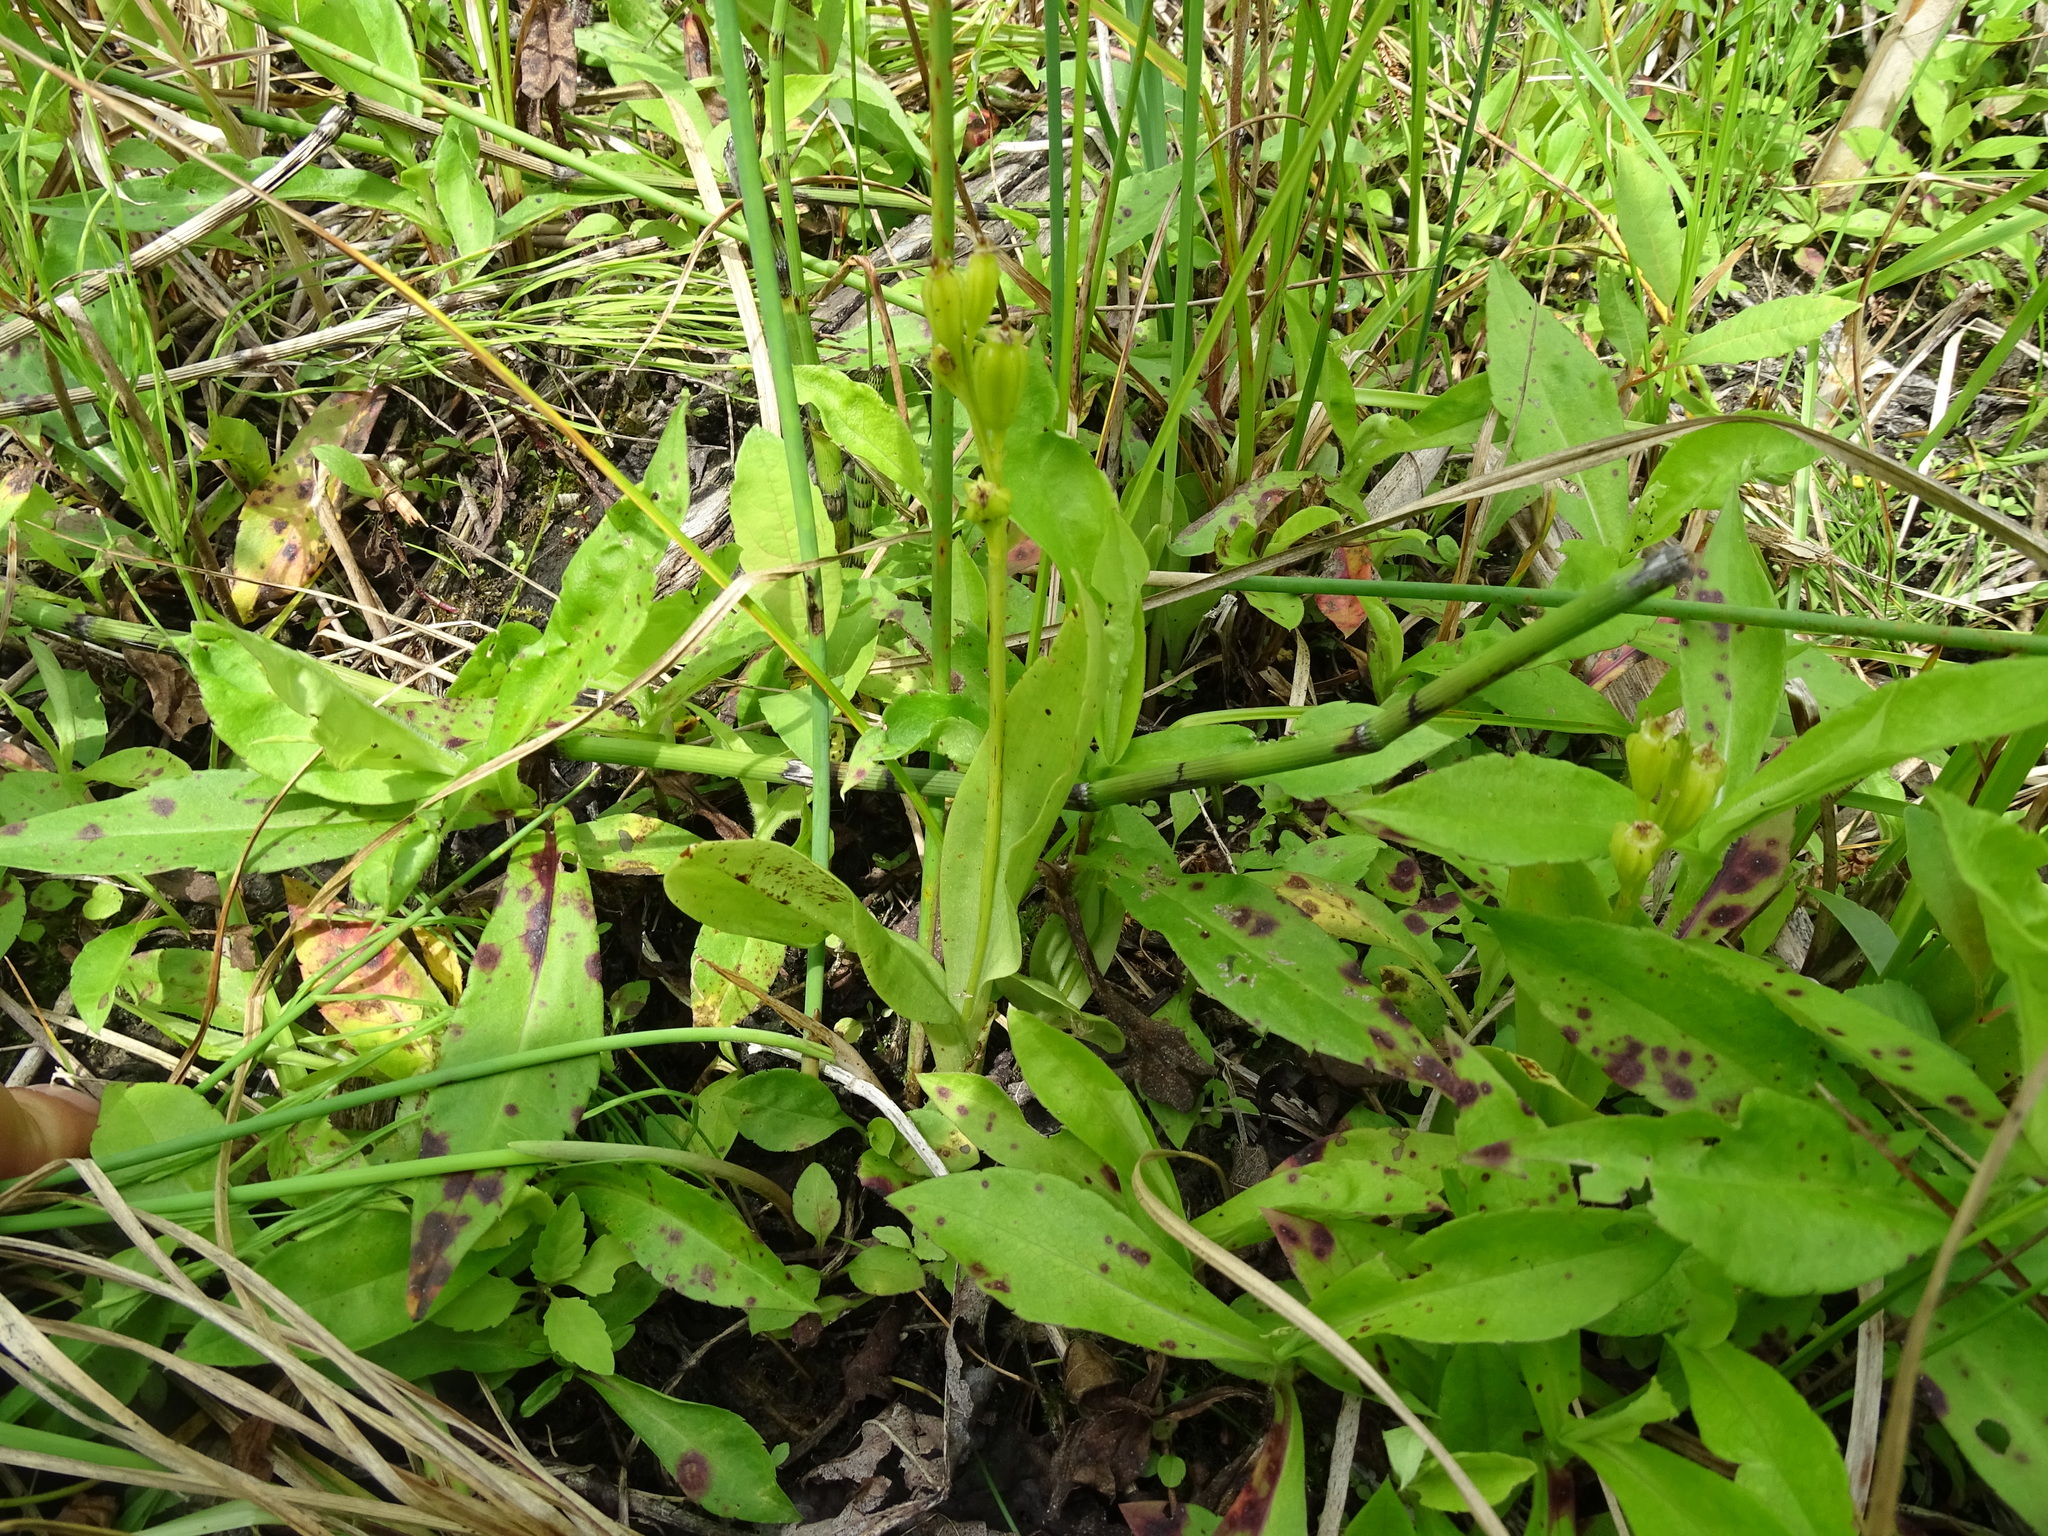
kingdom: Animalia
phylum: Arthropoda
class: Insecta
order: Coleoptera
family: Curculionidae
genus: Liparis
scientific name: Liparis loeselii
